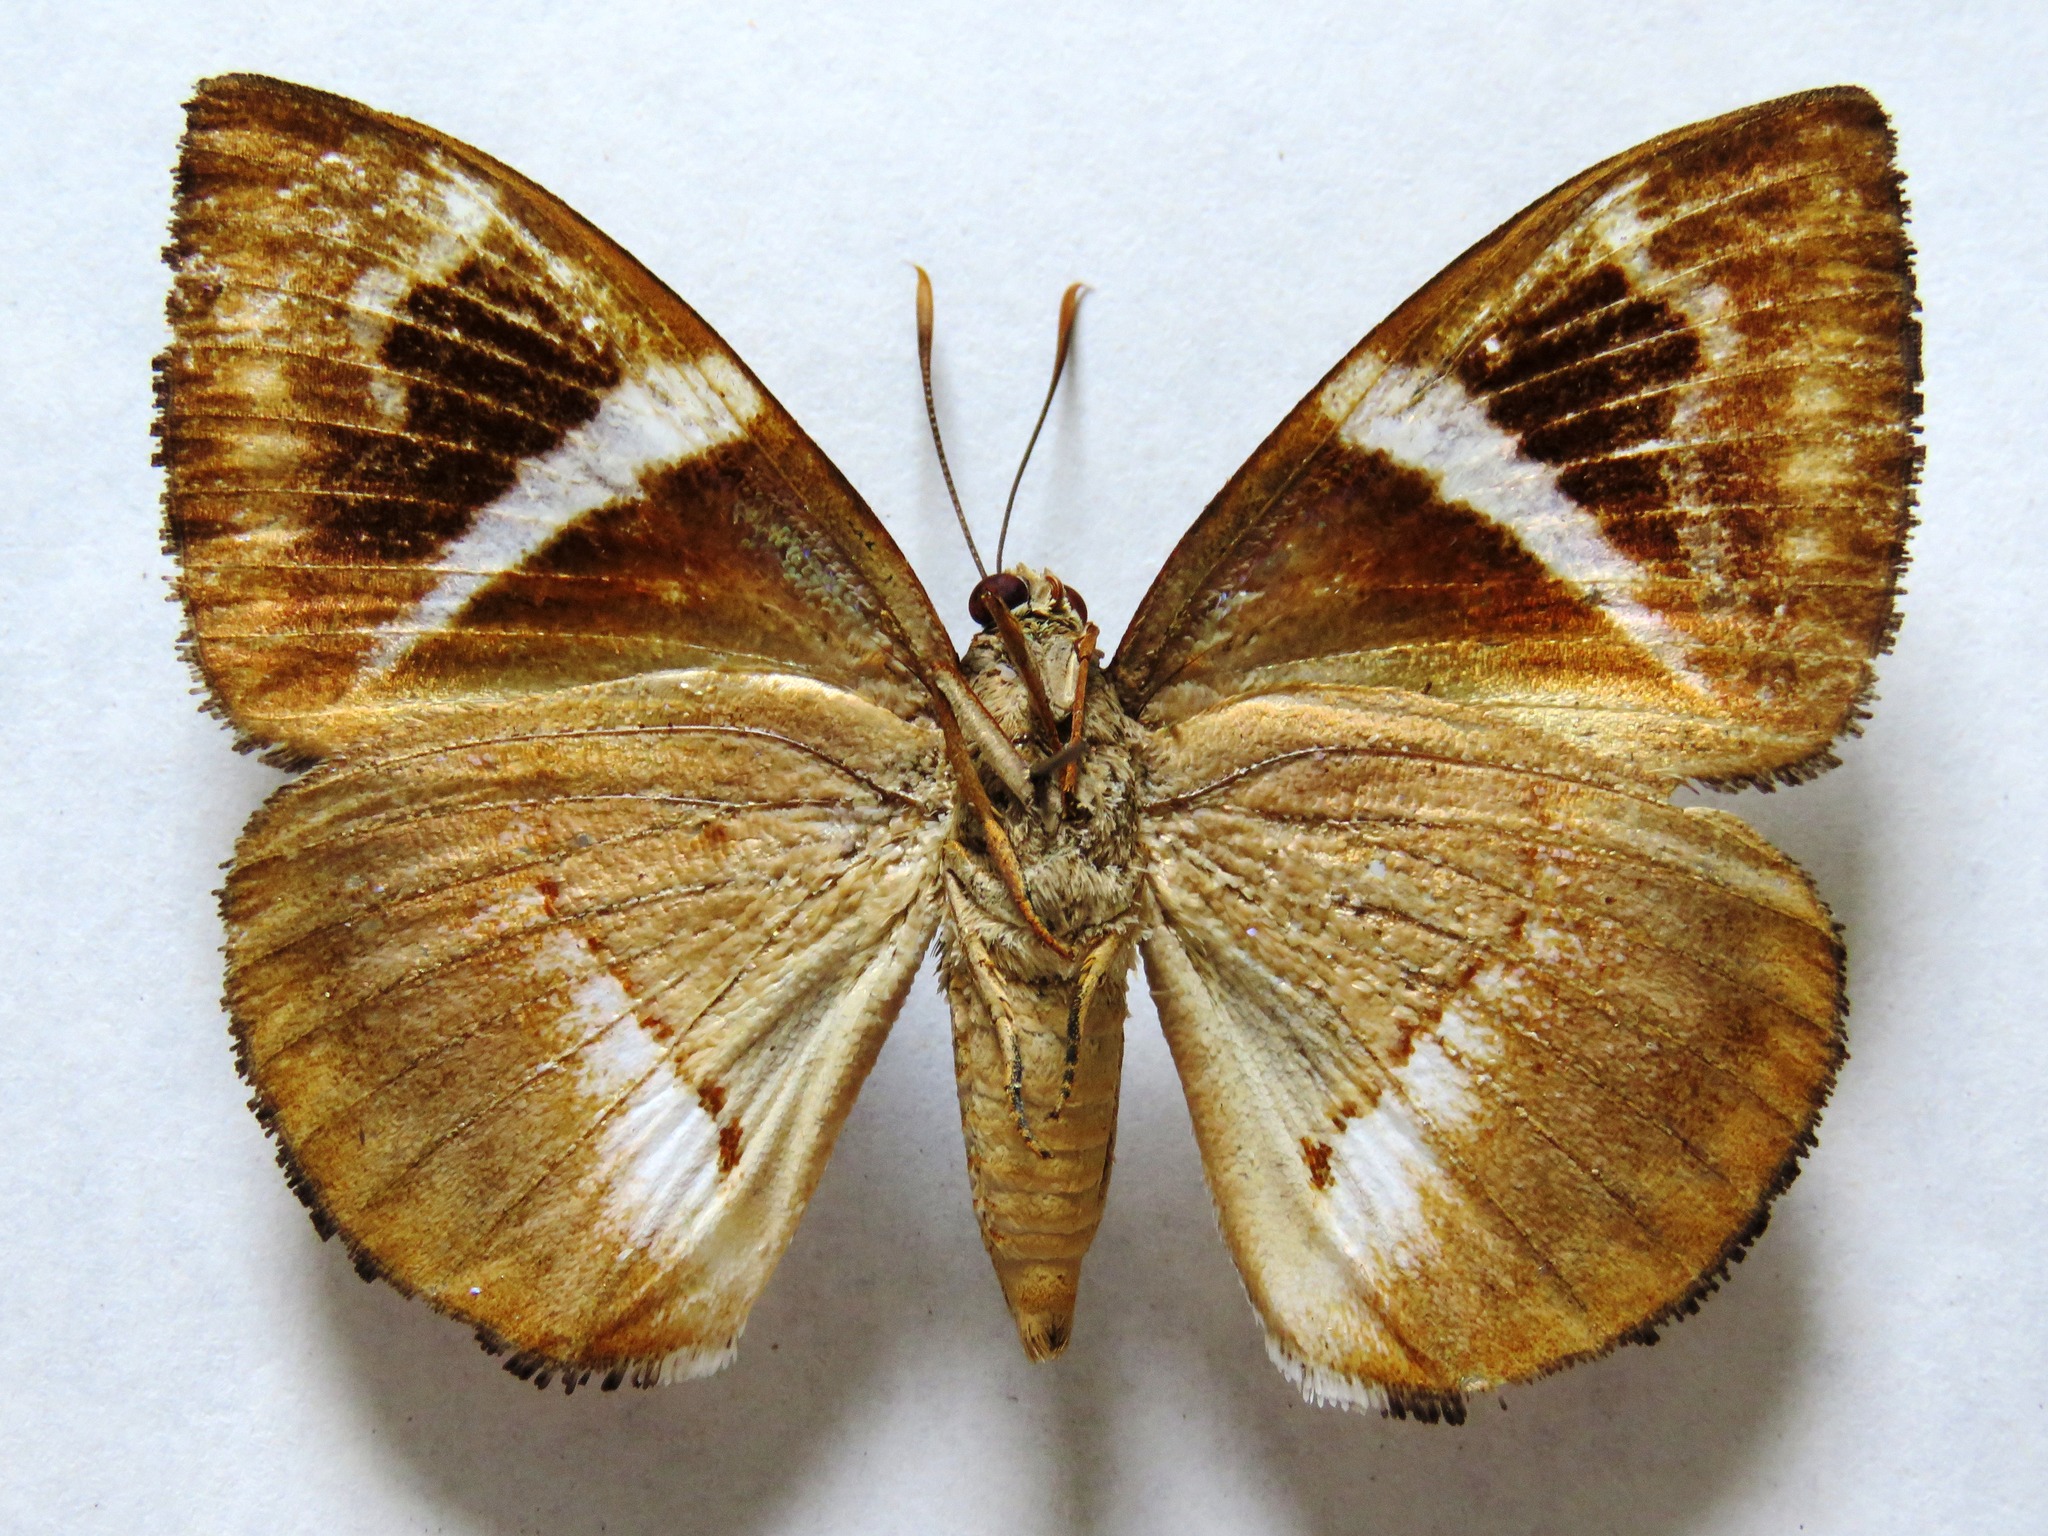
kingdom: Animalia
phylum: Arthropoda
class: Insecta
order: Lepidoptera
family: Castniidae
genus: Castniomera
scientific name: Castniomera atymnius
